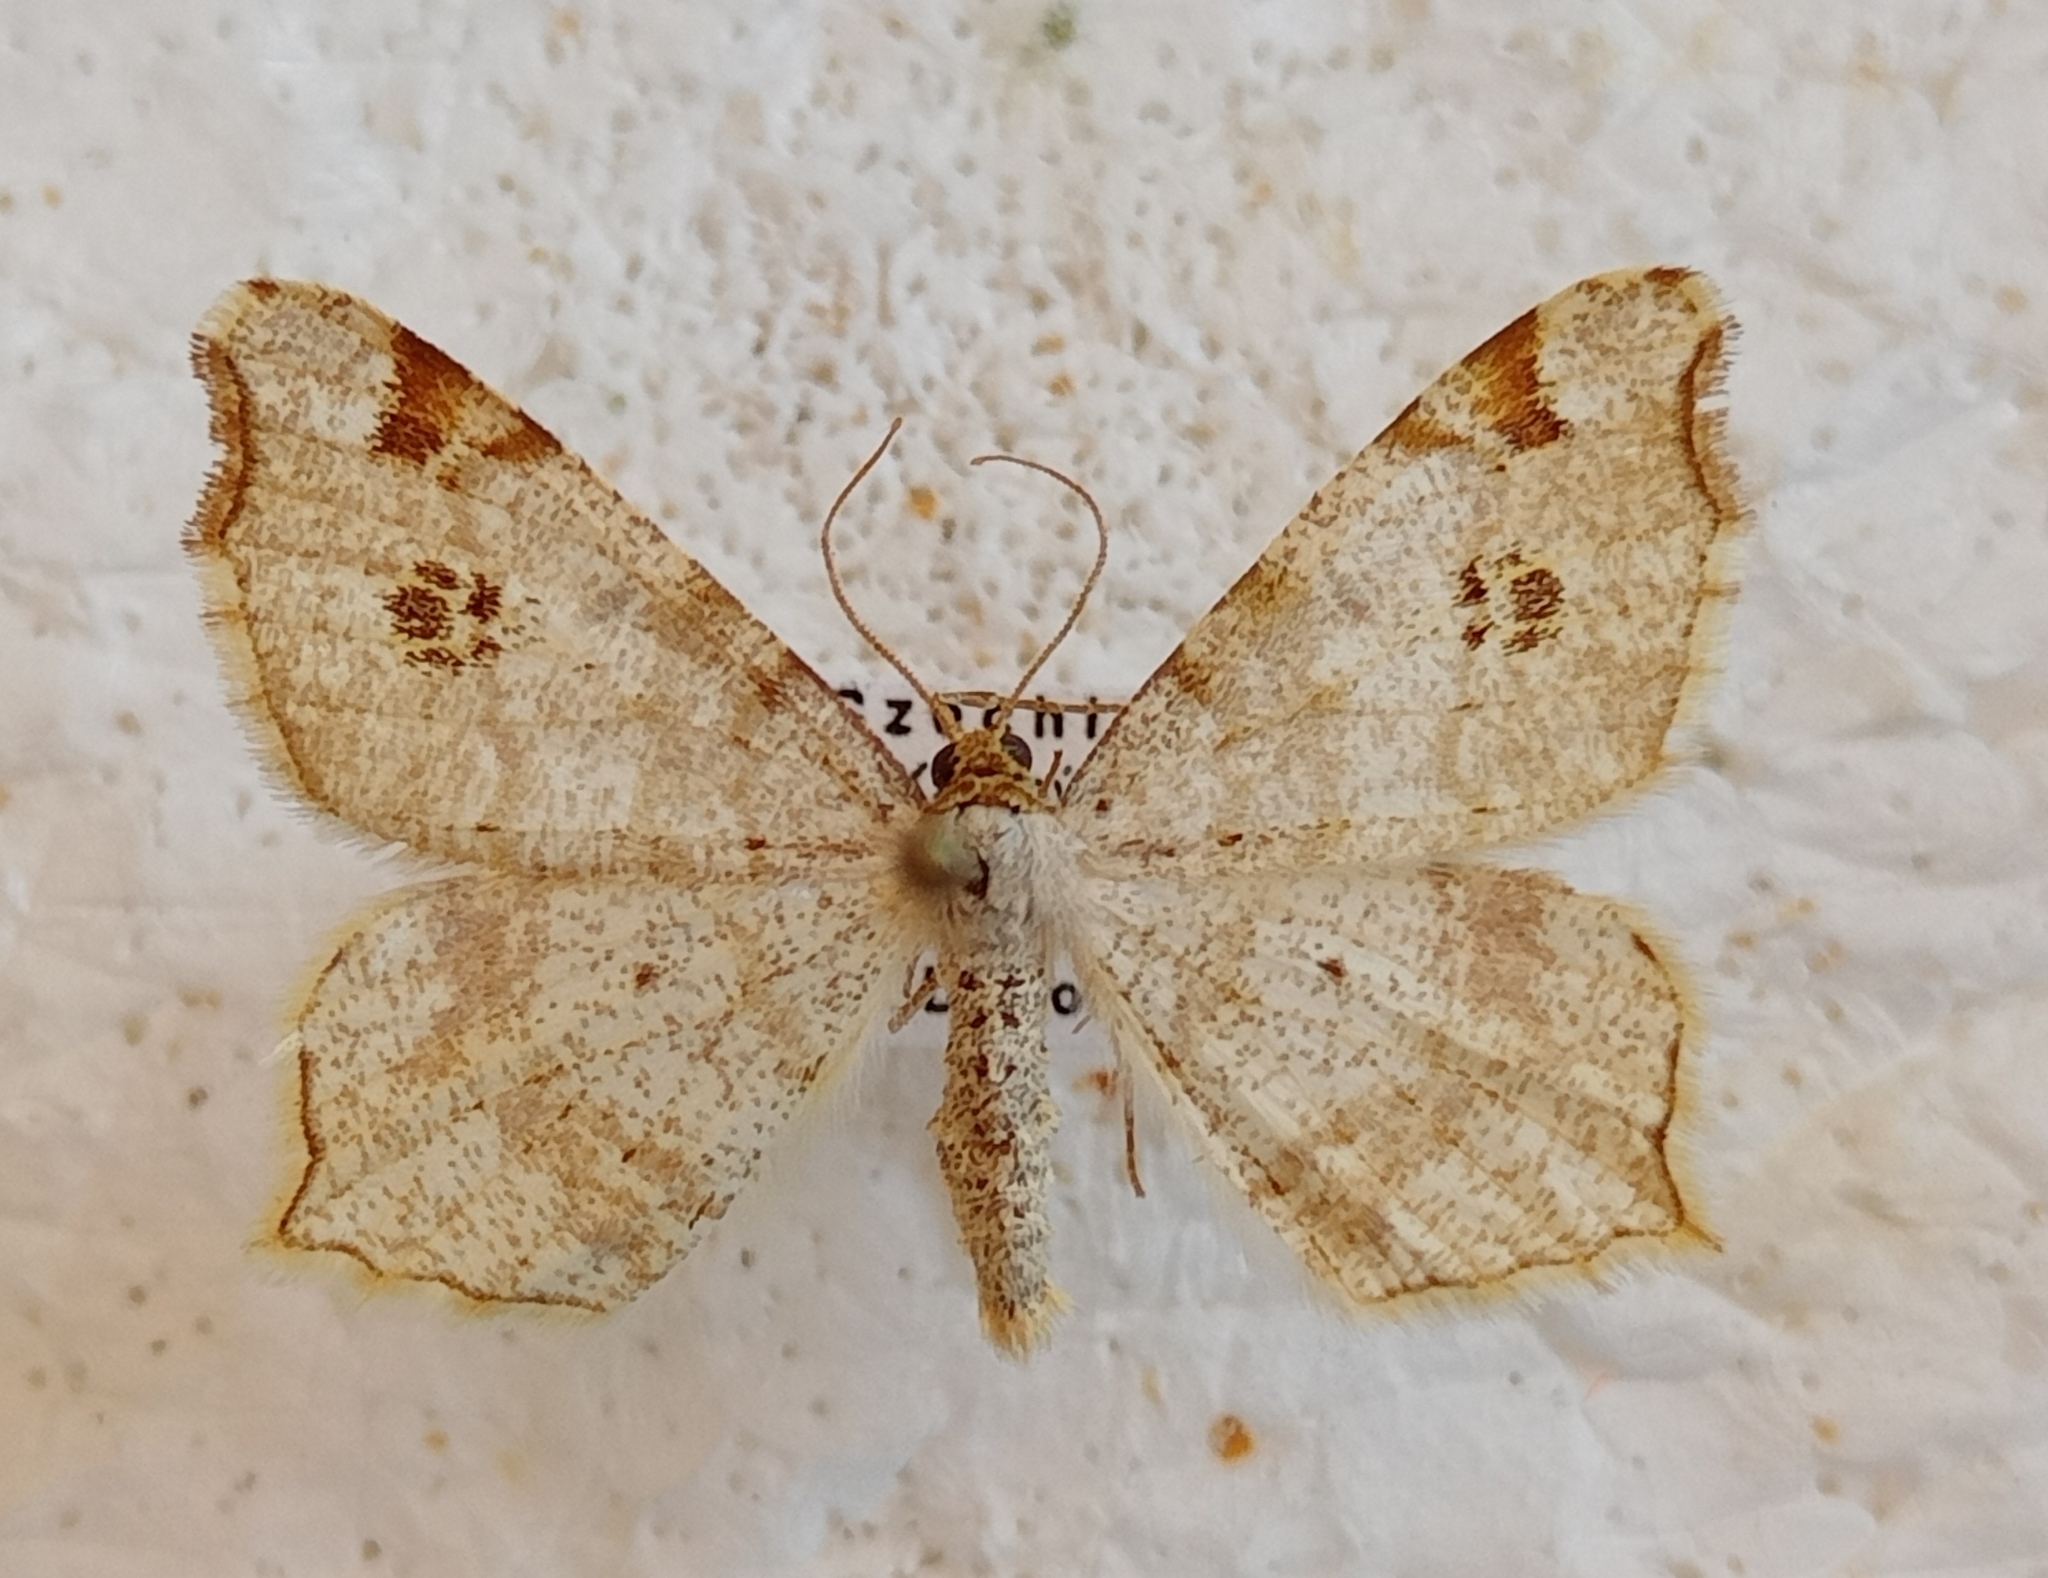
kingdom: Animalia
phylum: Arthropoda
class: Insecta
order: Lepidoptera
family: Geometridae
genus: Macaria
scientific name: Macaria notata
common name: Peacock moth
